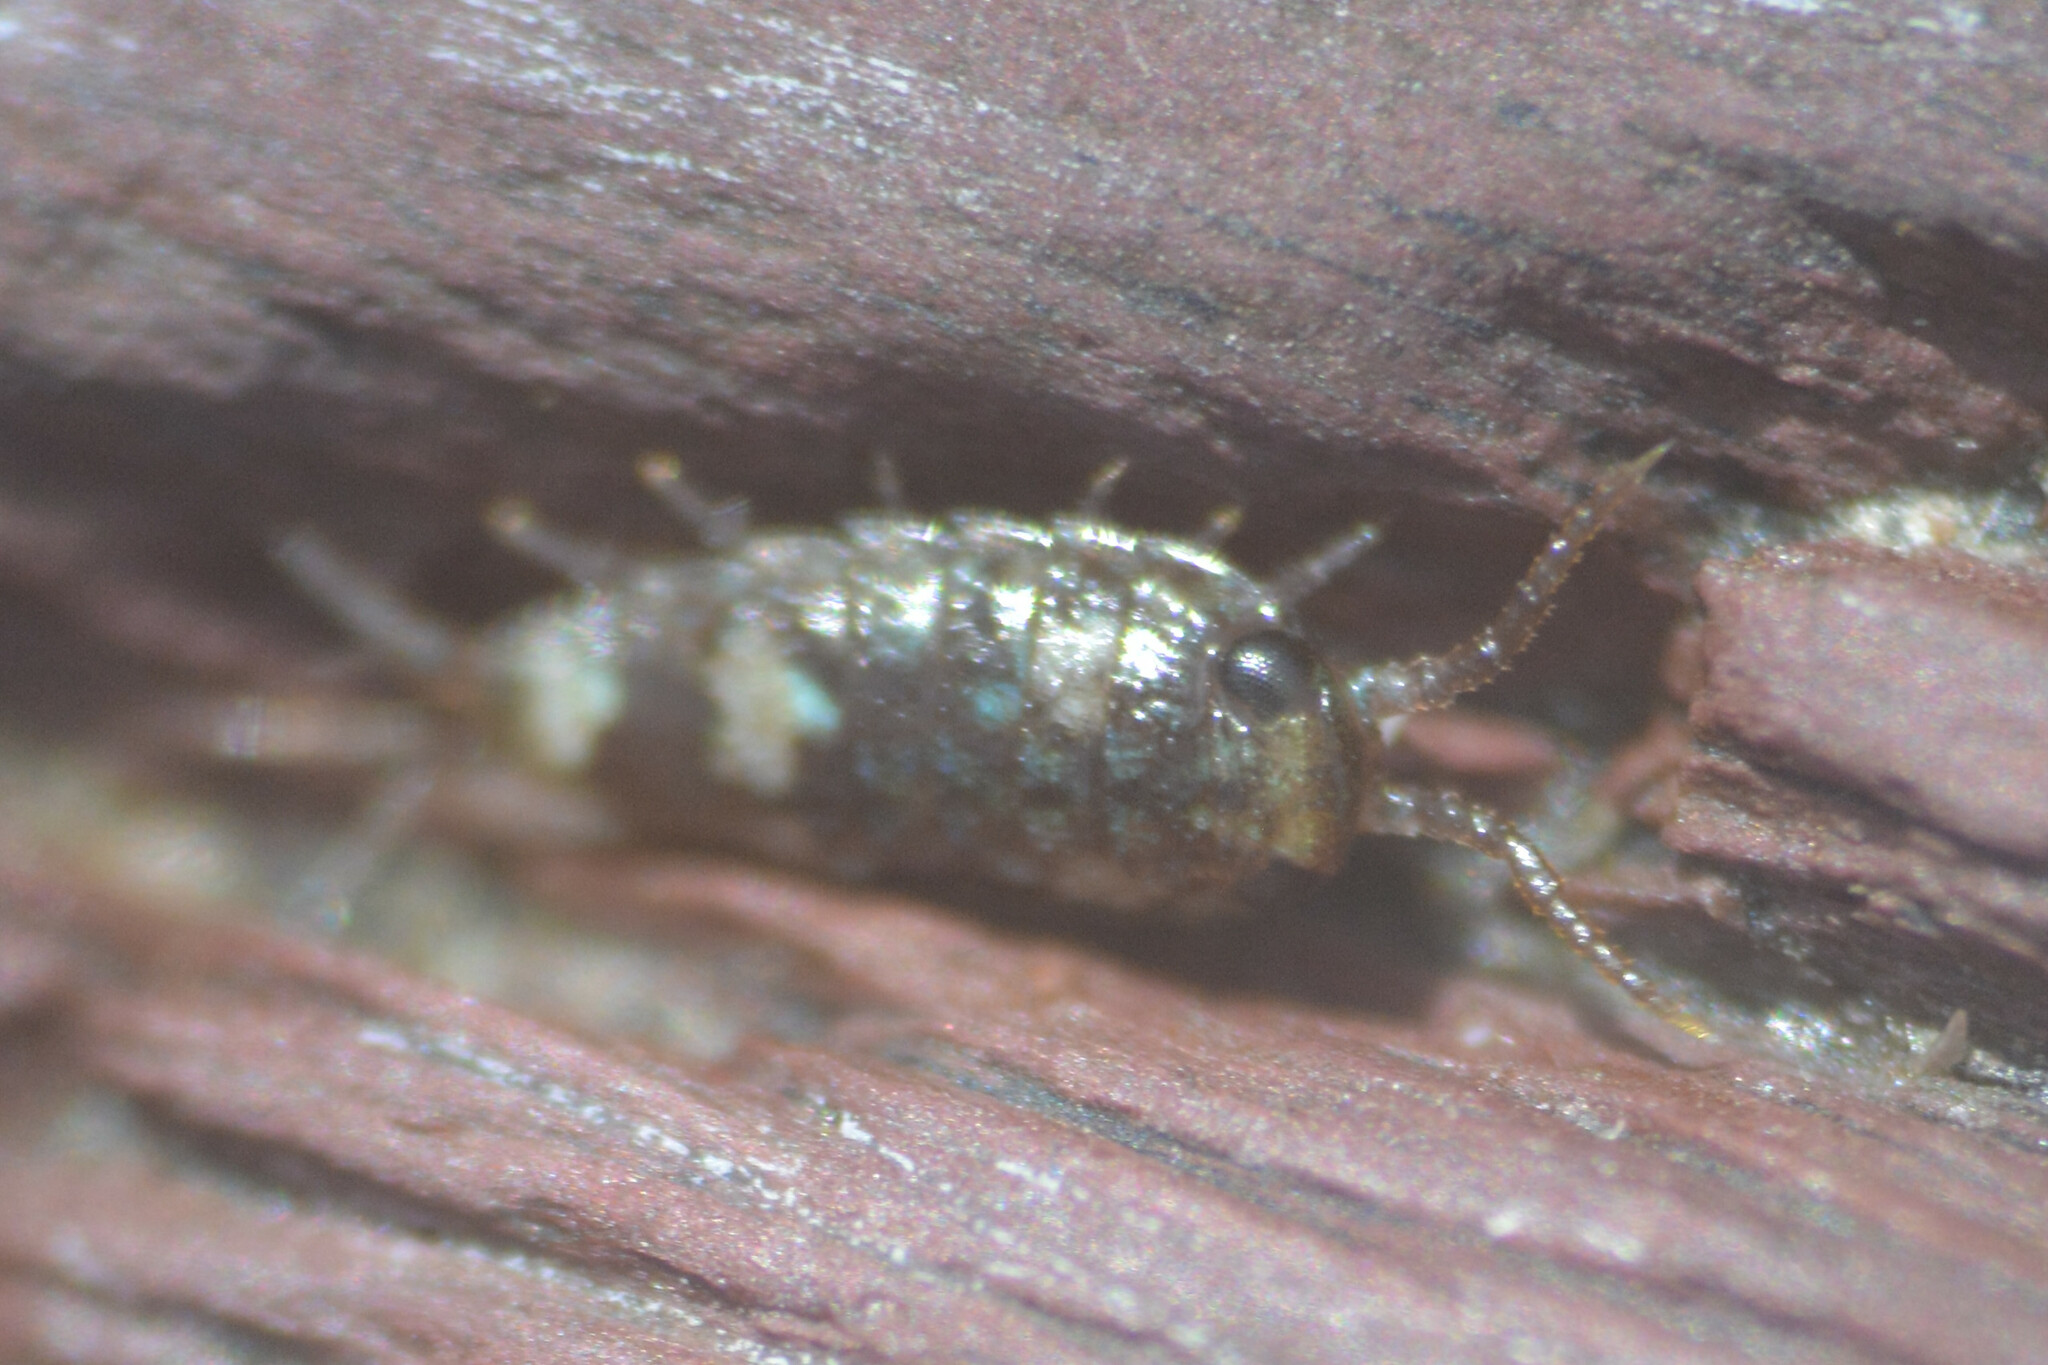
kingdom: Animalia
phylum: Arthropoda
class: Malacostraca
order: Isopoda
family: Ligiidae
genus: Ligia
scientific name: Ligia oceanica
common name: Sea slater
